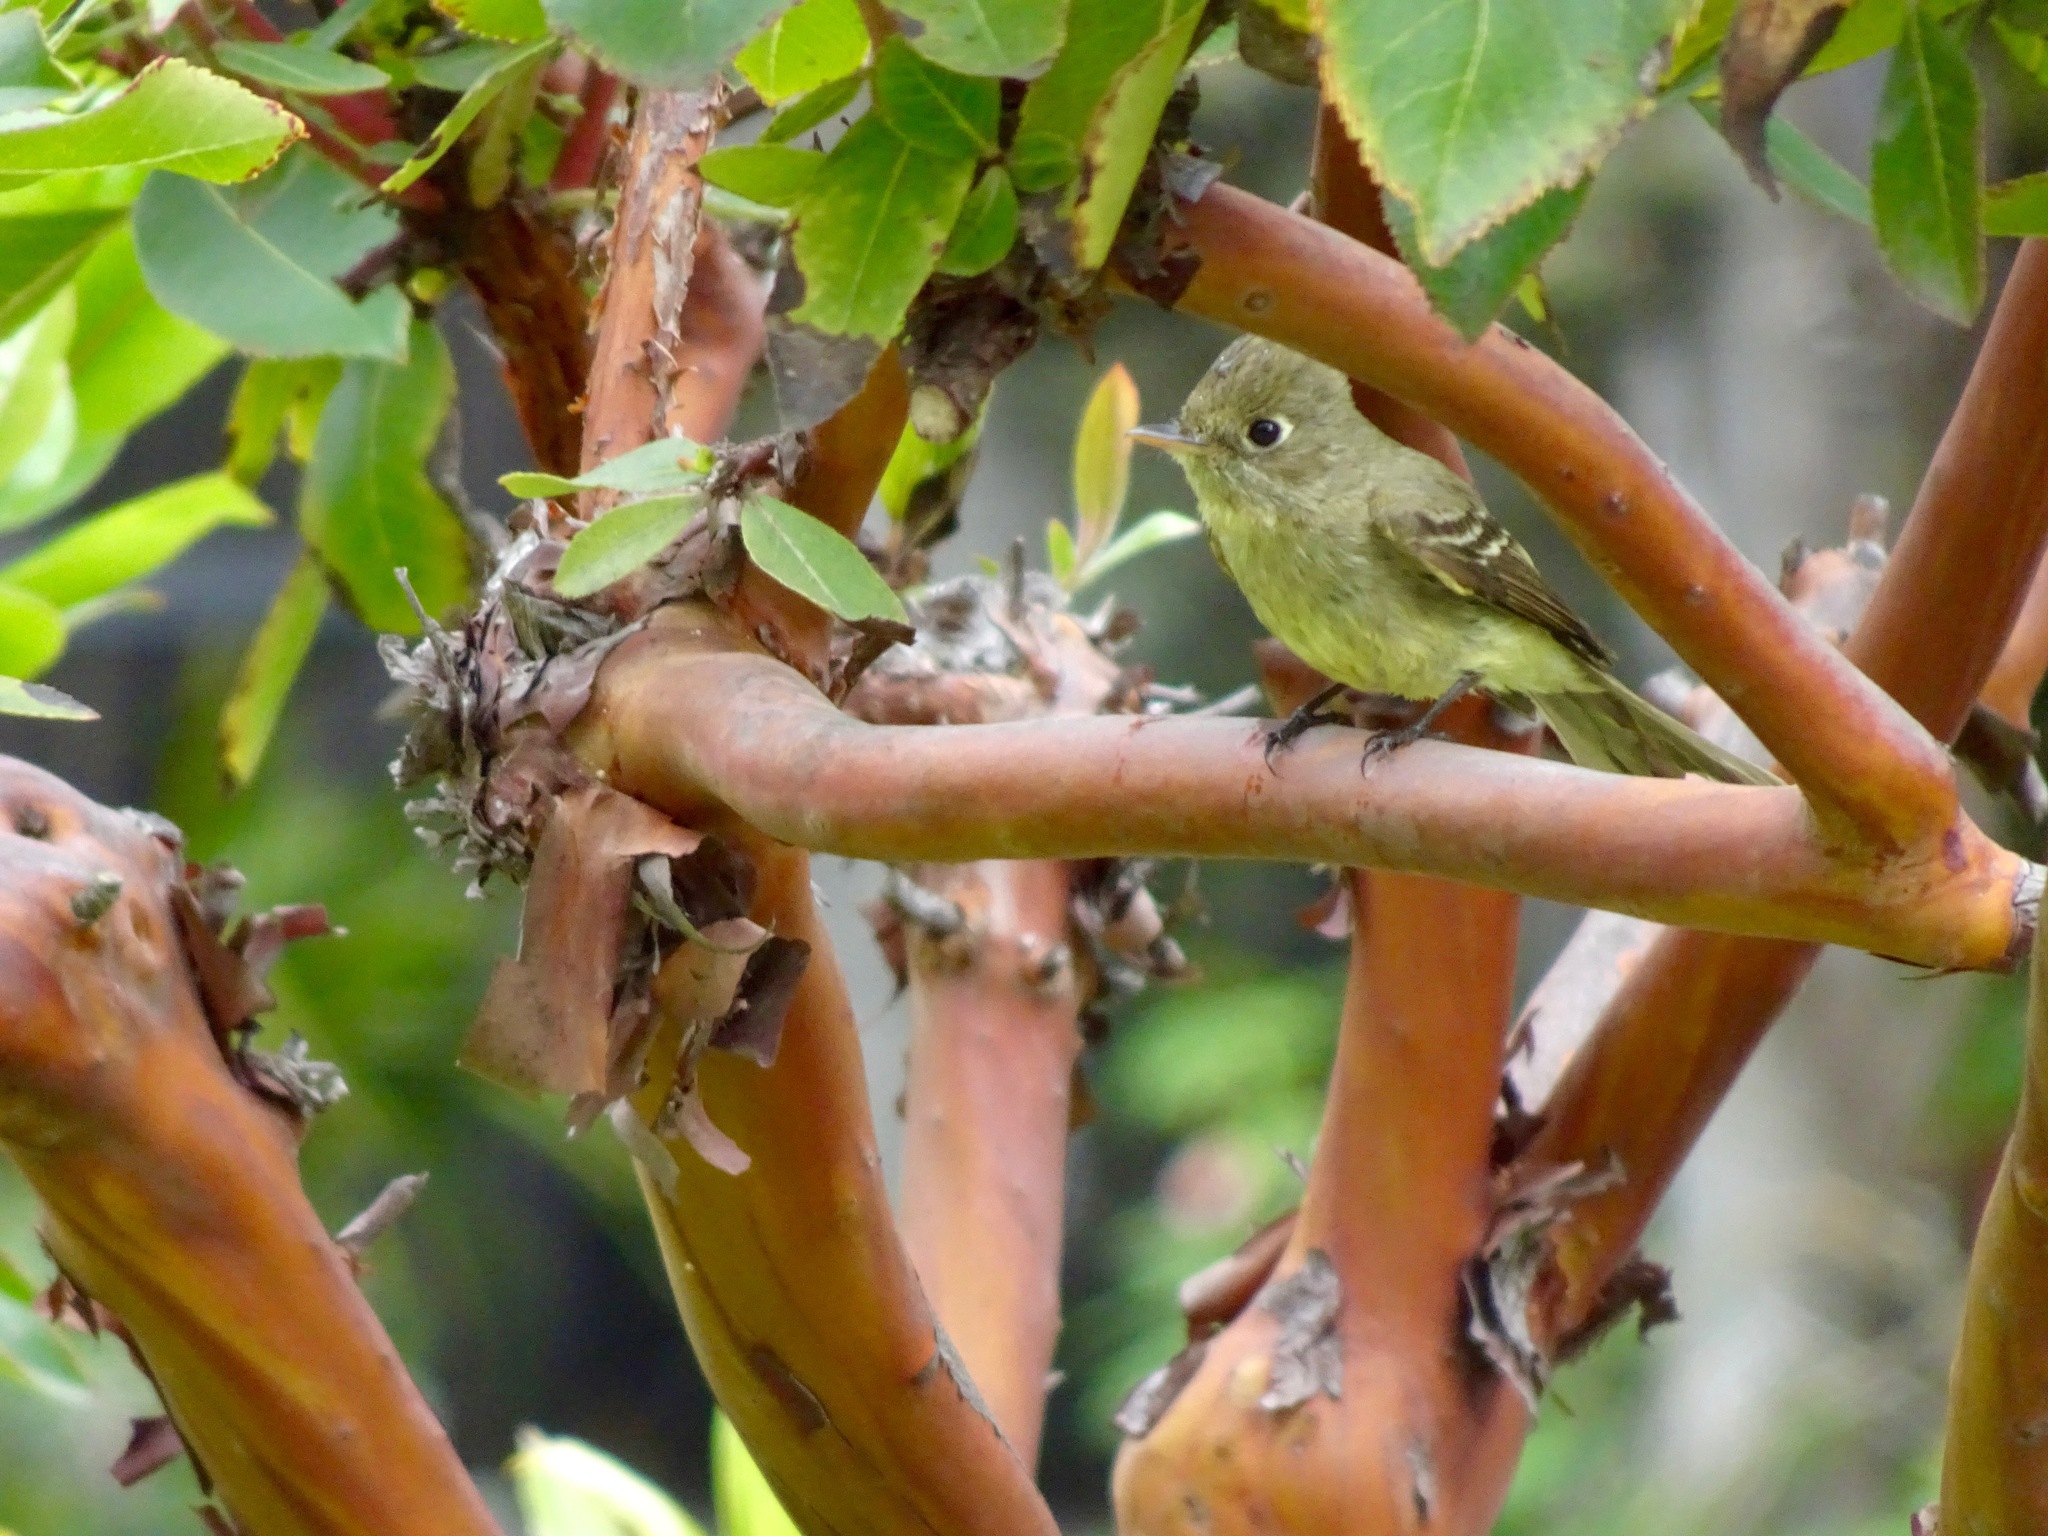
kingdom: Animalia
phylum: Chordata
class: Aves
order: Passeriformes
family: Tyrannidae
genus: Empidonax
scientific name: Empidonax difficilis
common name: Pacific-slope flycatcher
